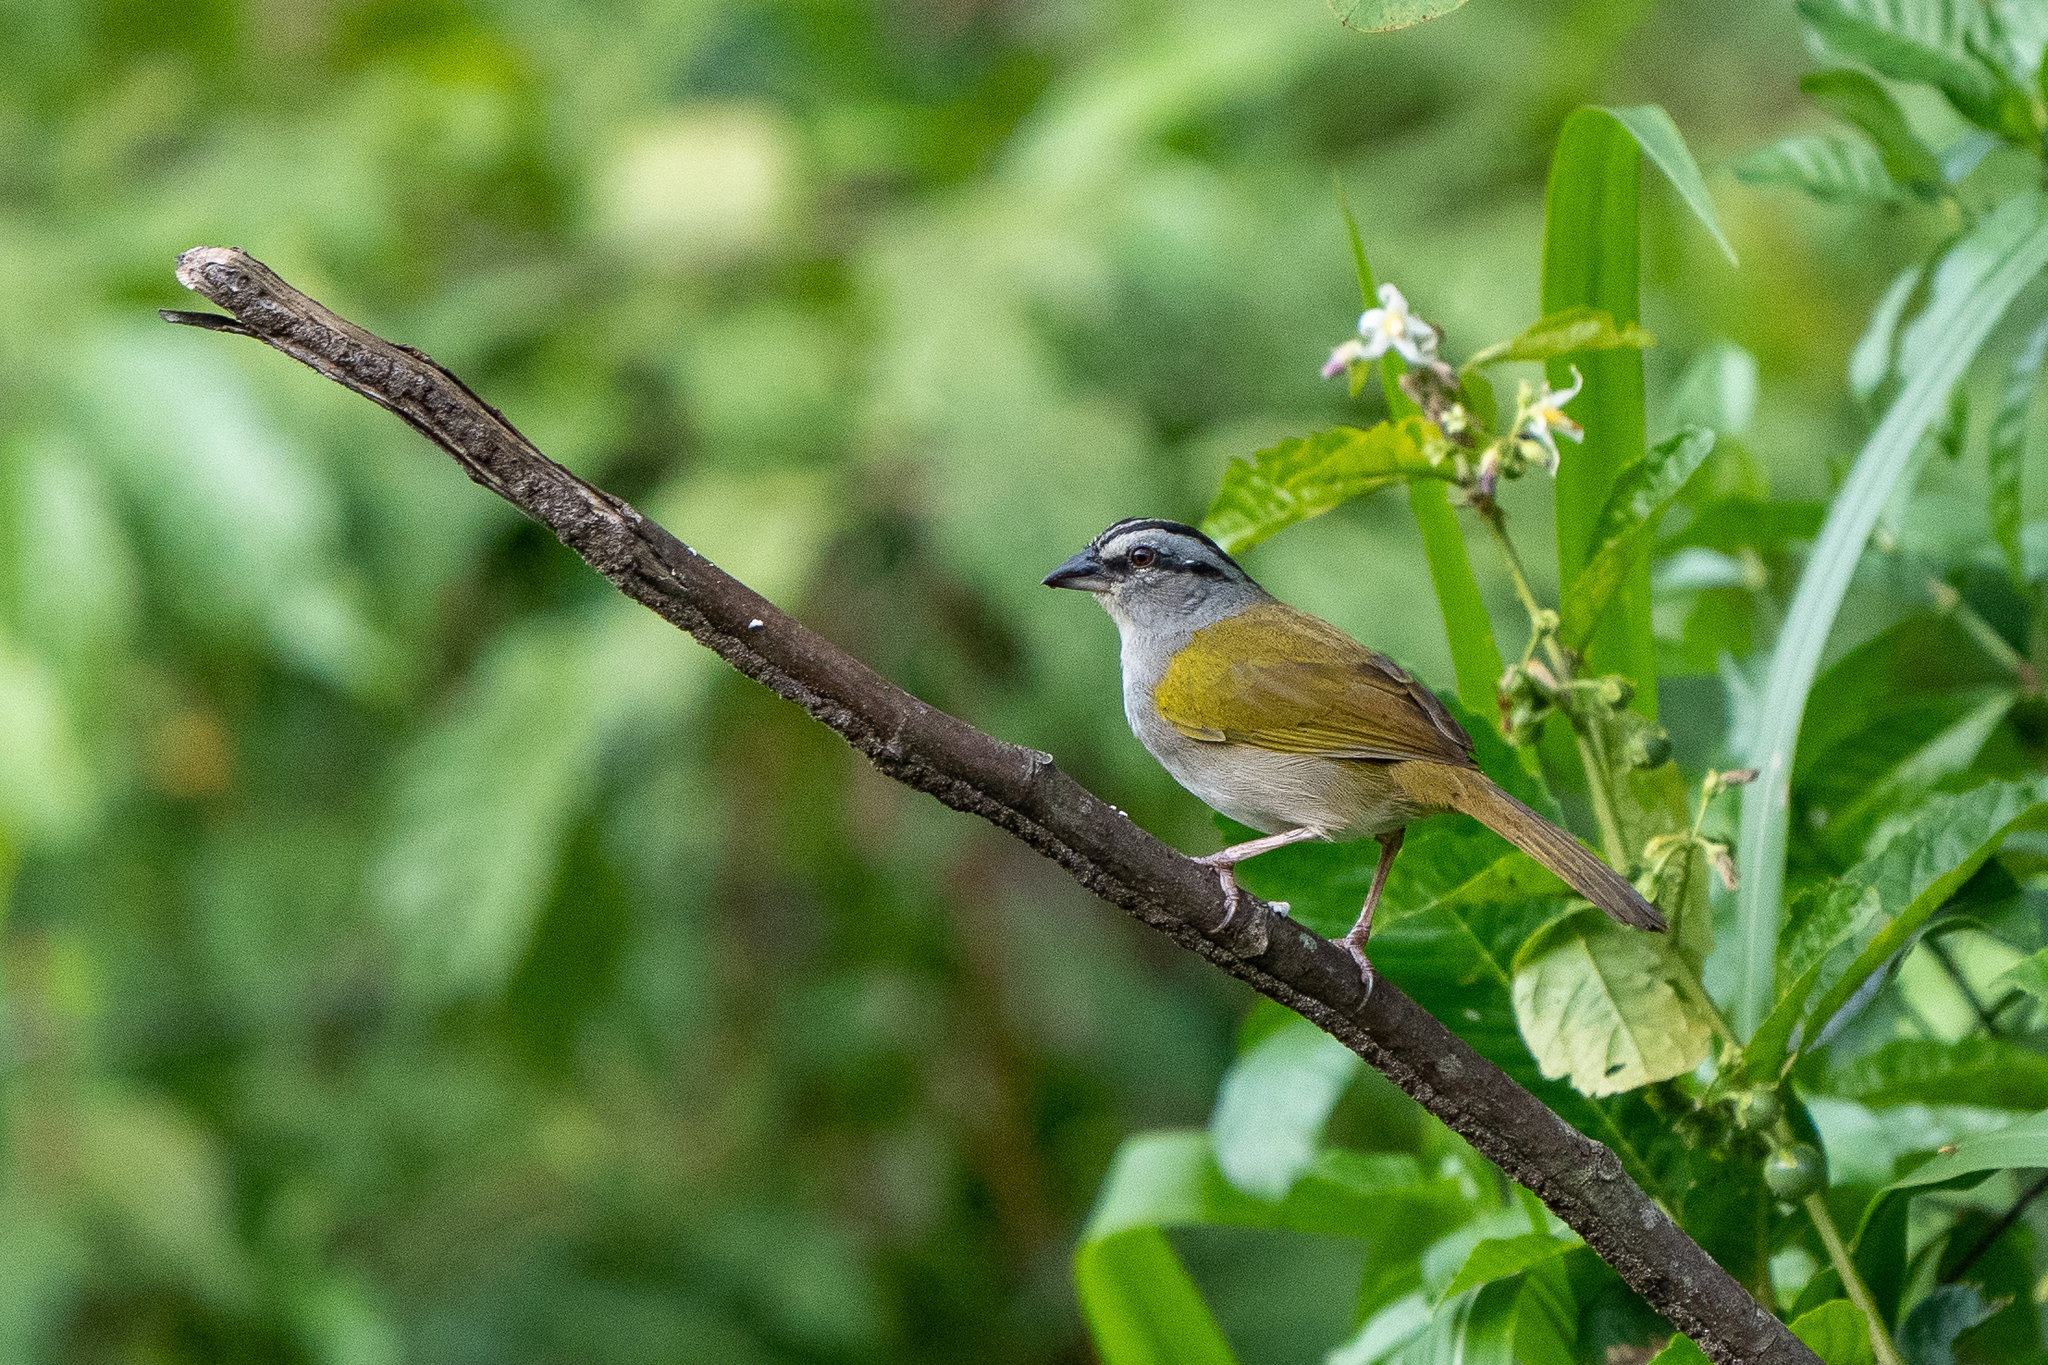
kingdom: Animalia
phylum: Chordata
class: Aves
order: Passeriformes
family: Passerellidae
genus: Arremonops
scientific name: Arremonops conirostris
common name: Black-striped sparrow
